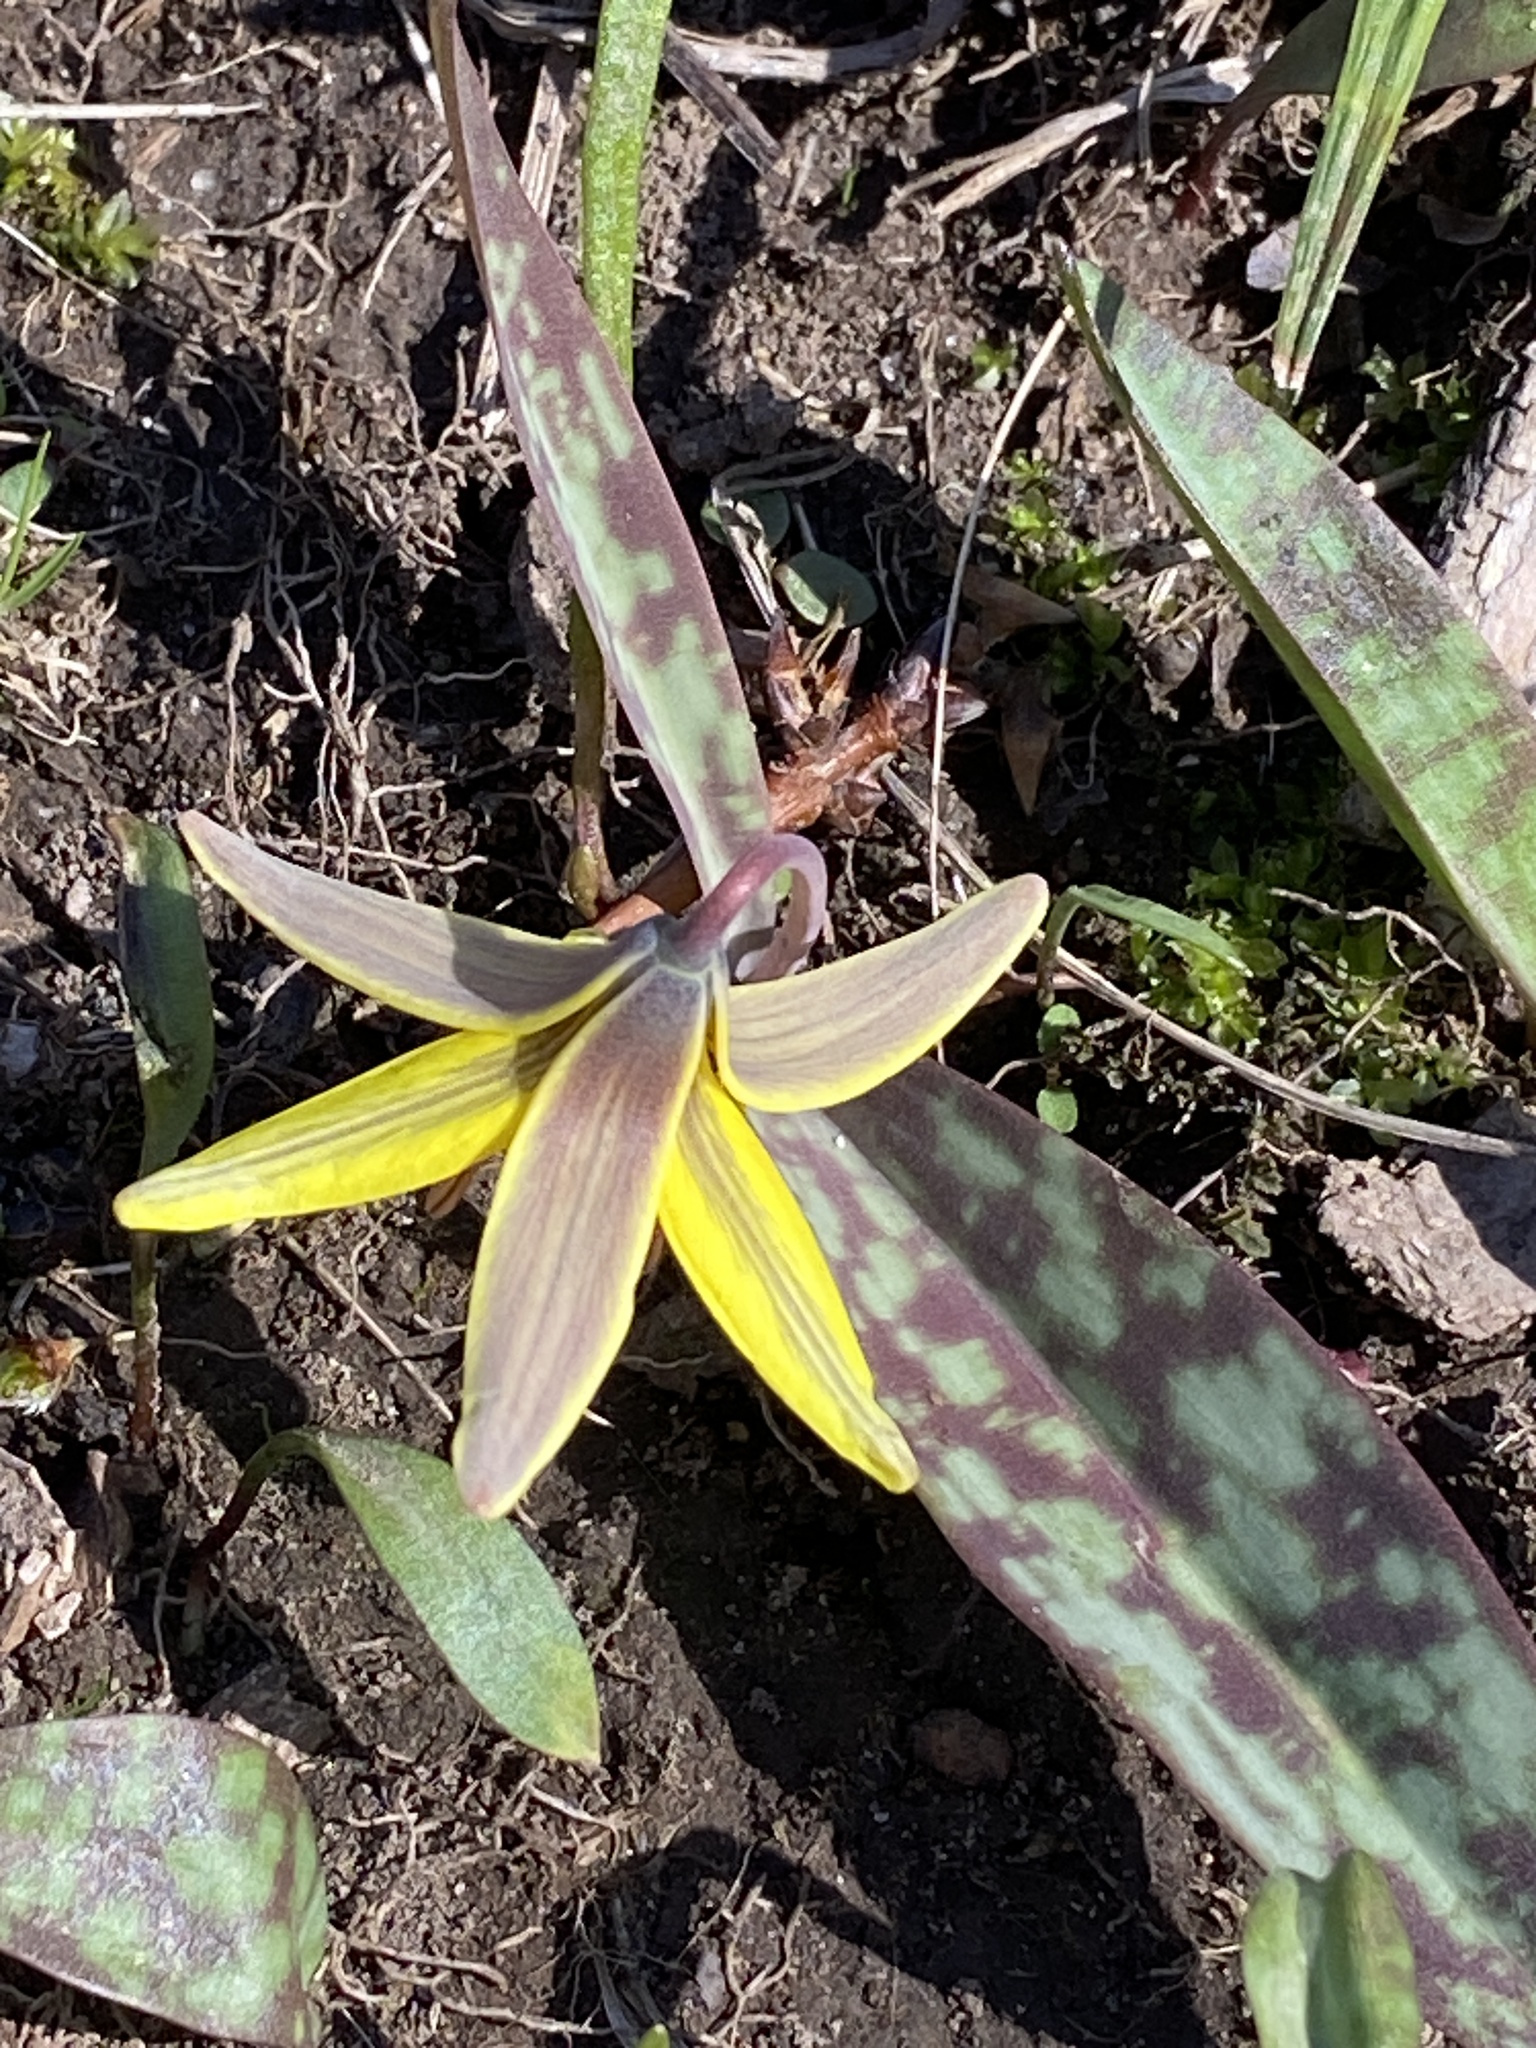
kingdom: Plantae
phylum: Tracheophyta
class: Liliopsida
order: Liliales
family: Liliaceae
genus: Erythronium
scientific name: Erythronium americanum
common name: Yellow adder's-tongue
